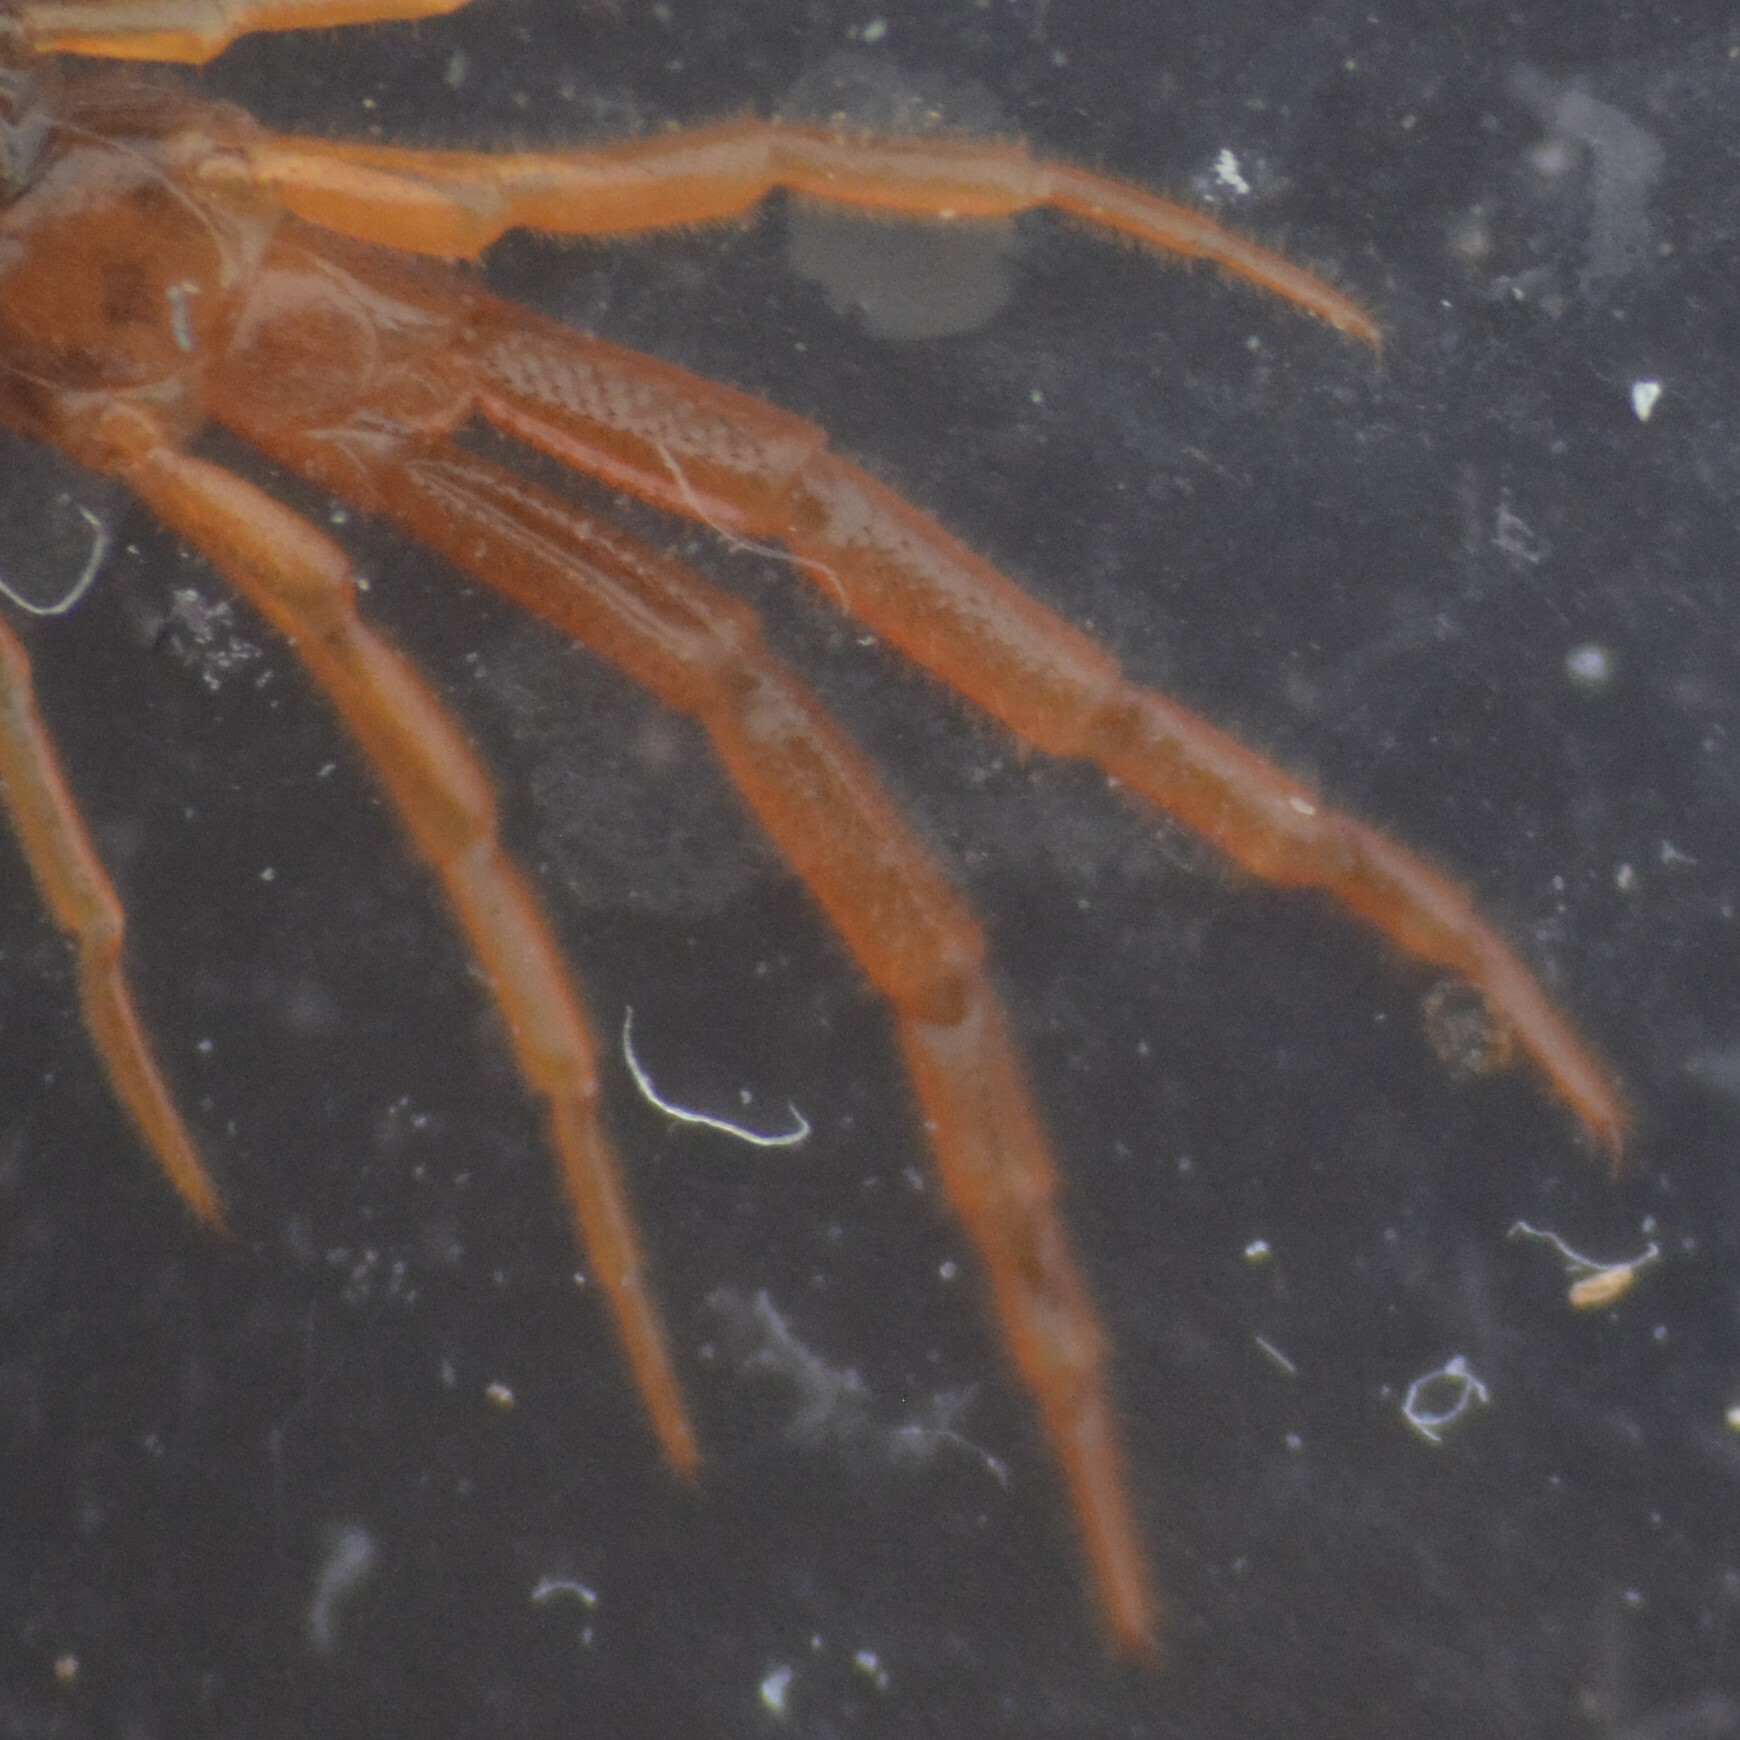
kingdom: Animalia
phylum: Arthropoda
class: Chilopoda
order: Scolopendromorpha
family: Cryptopidae
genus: Cryptops
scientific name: Cryptops hortensis
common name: Centipede
